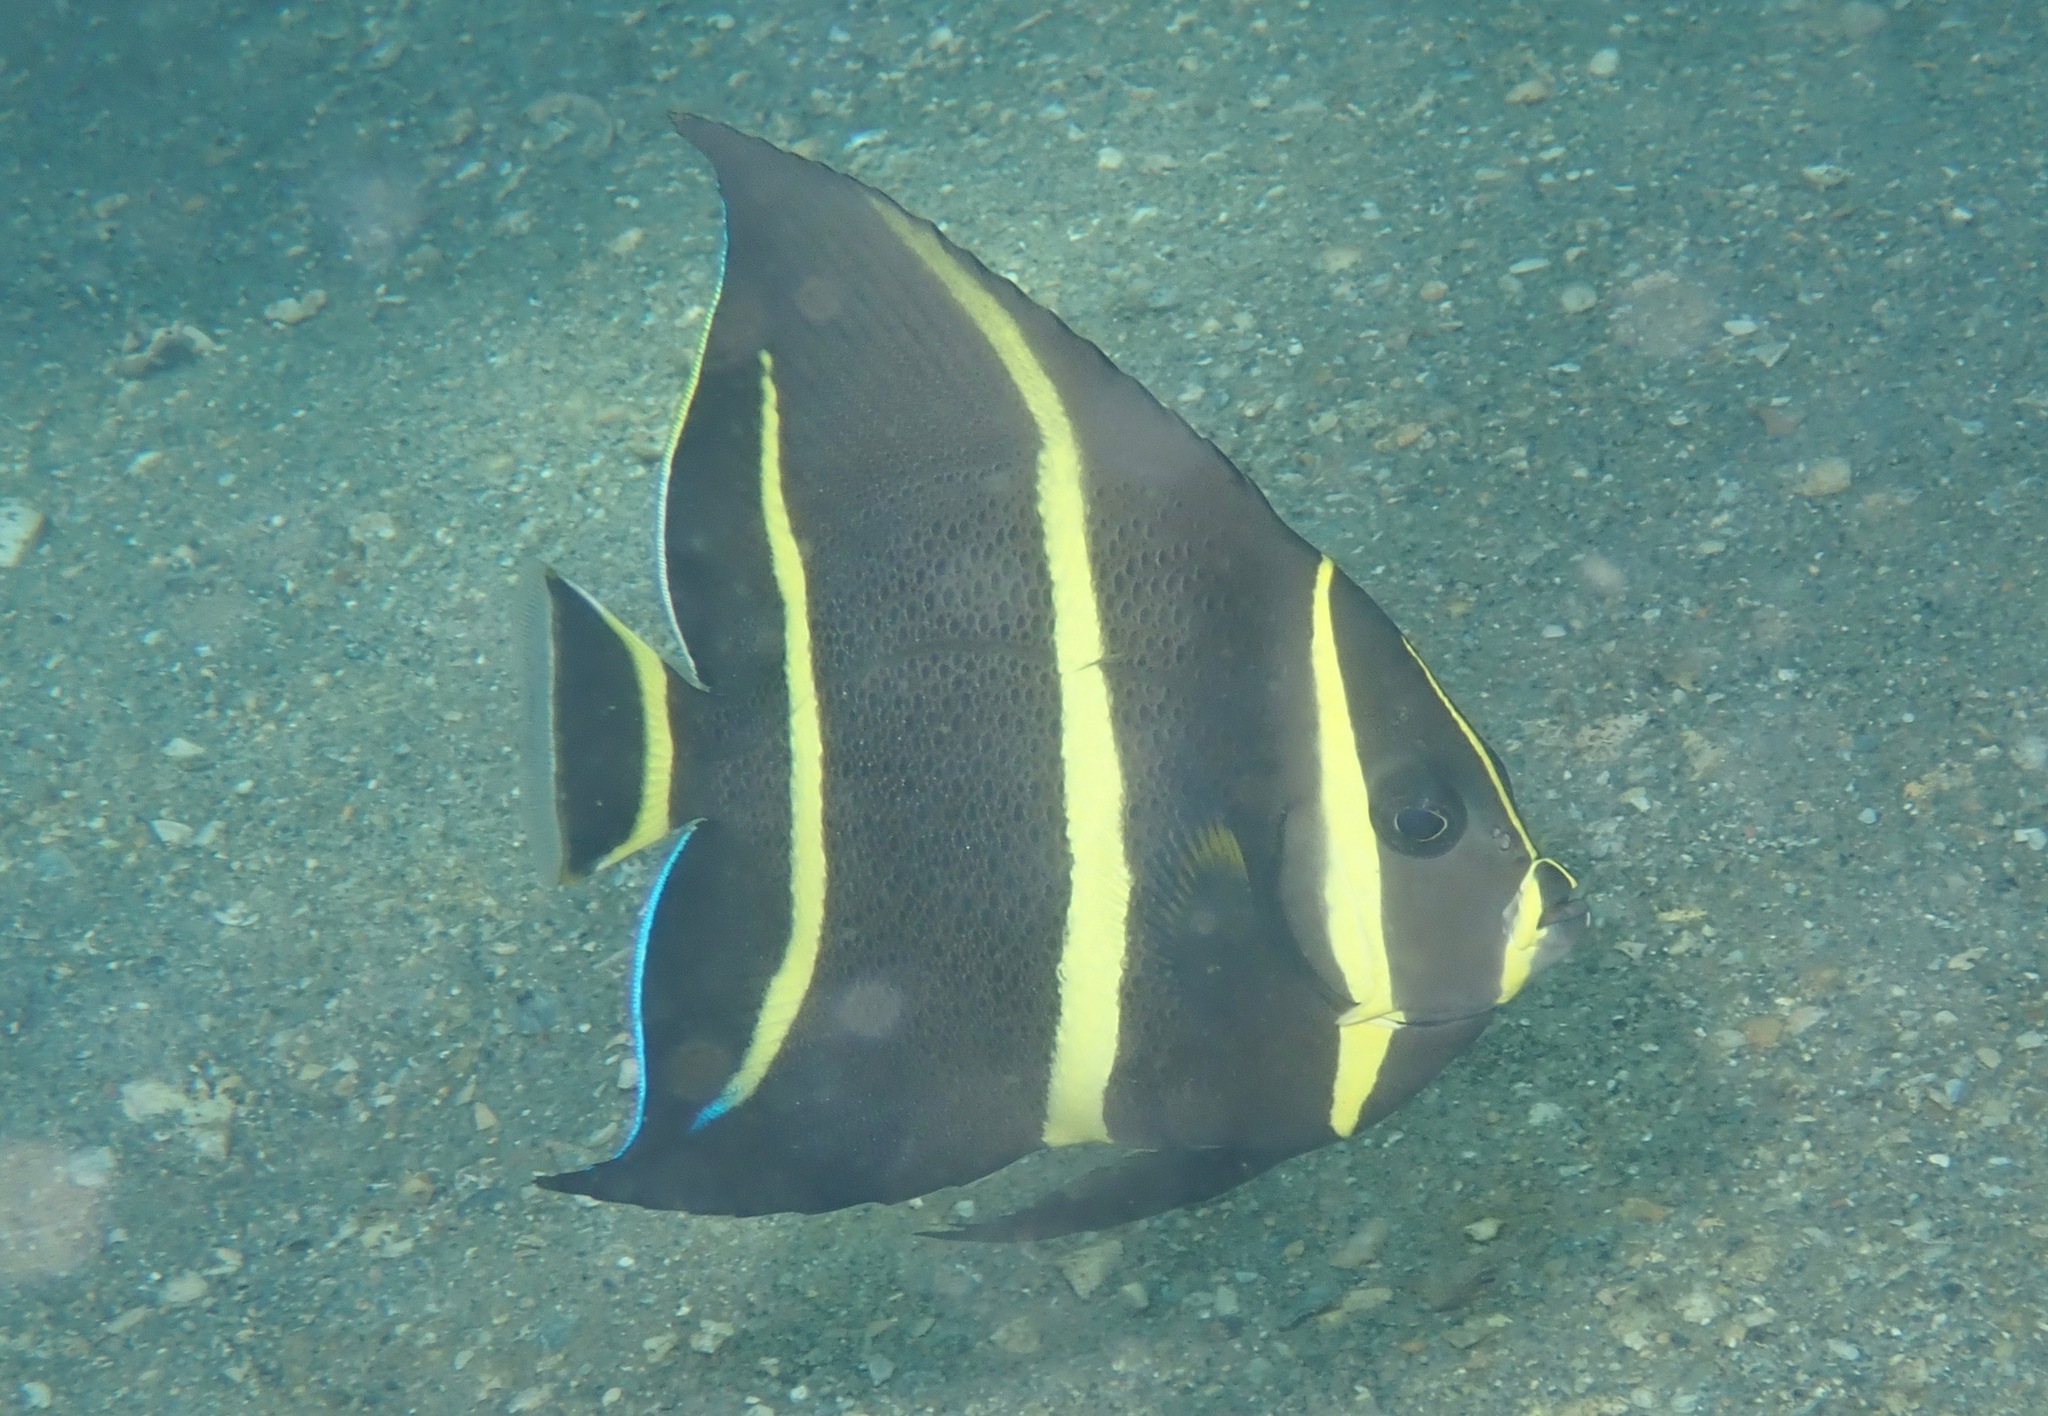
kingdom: Animalia
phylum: Chordata
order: Perciformes
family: Pomacanthidae
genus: Pomacanthus
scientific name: Pomacanthus arcuatus
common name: Gray angelfish
